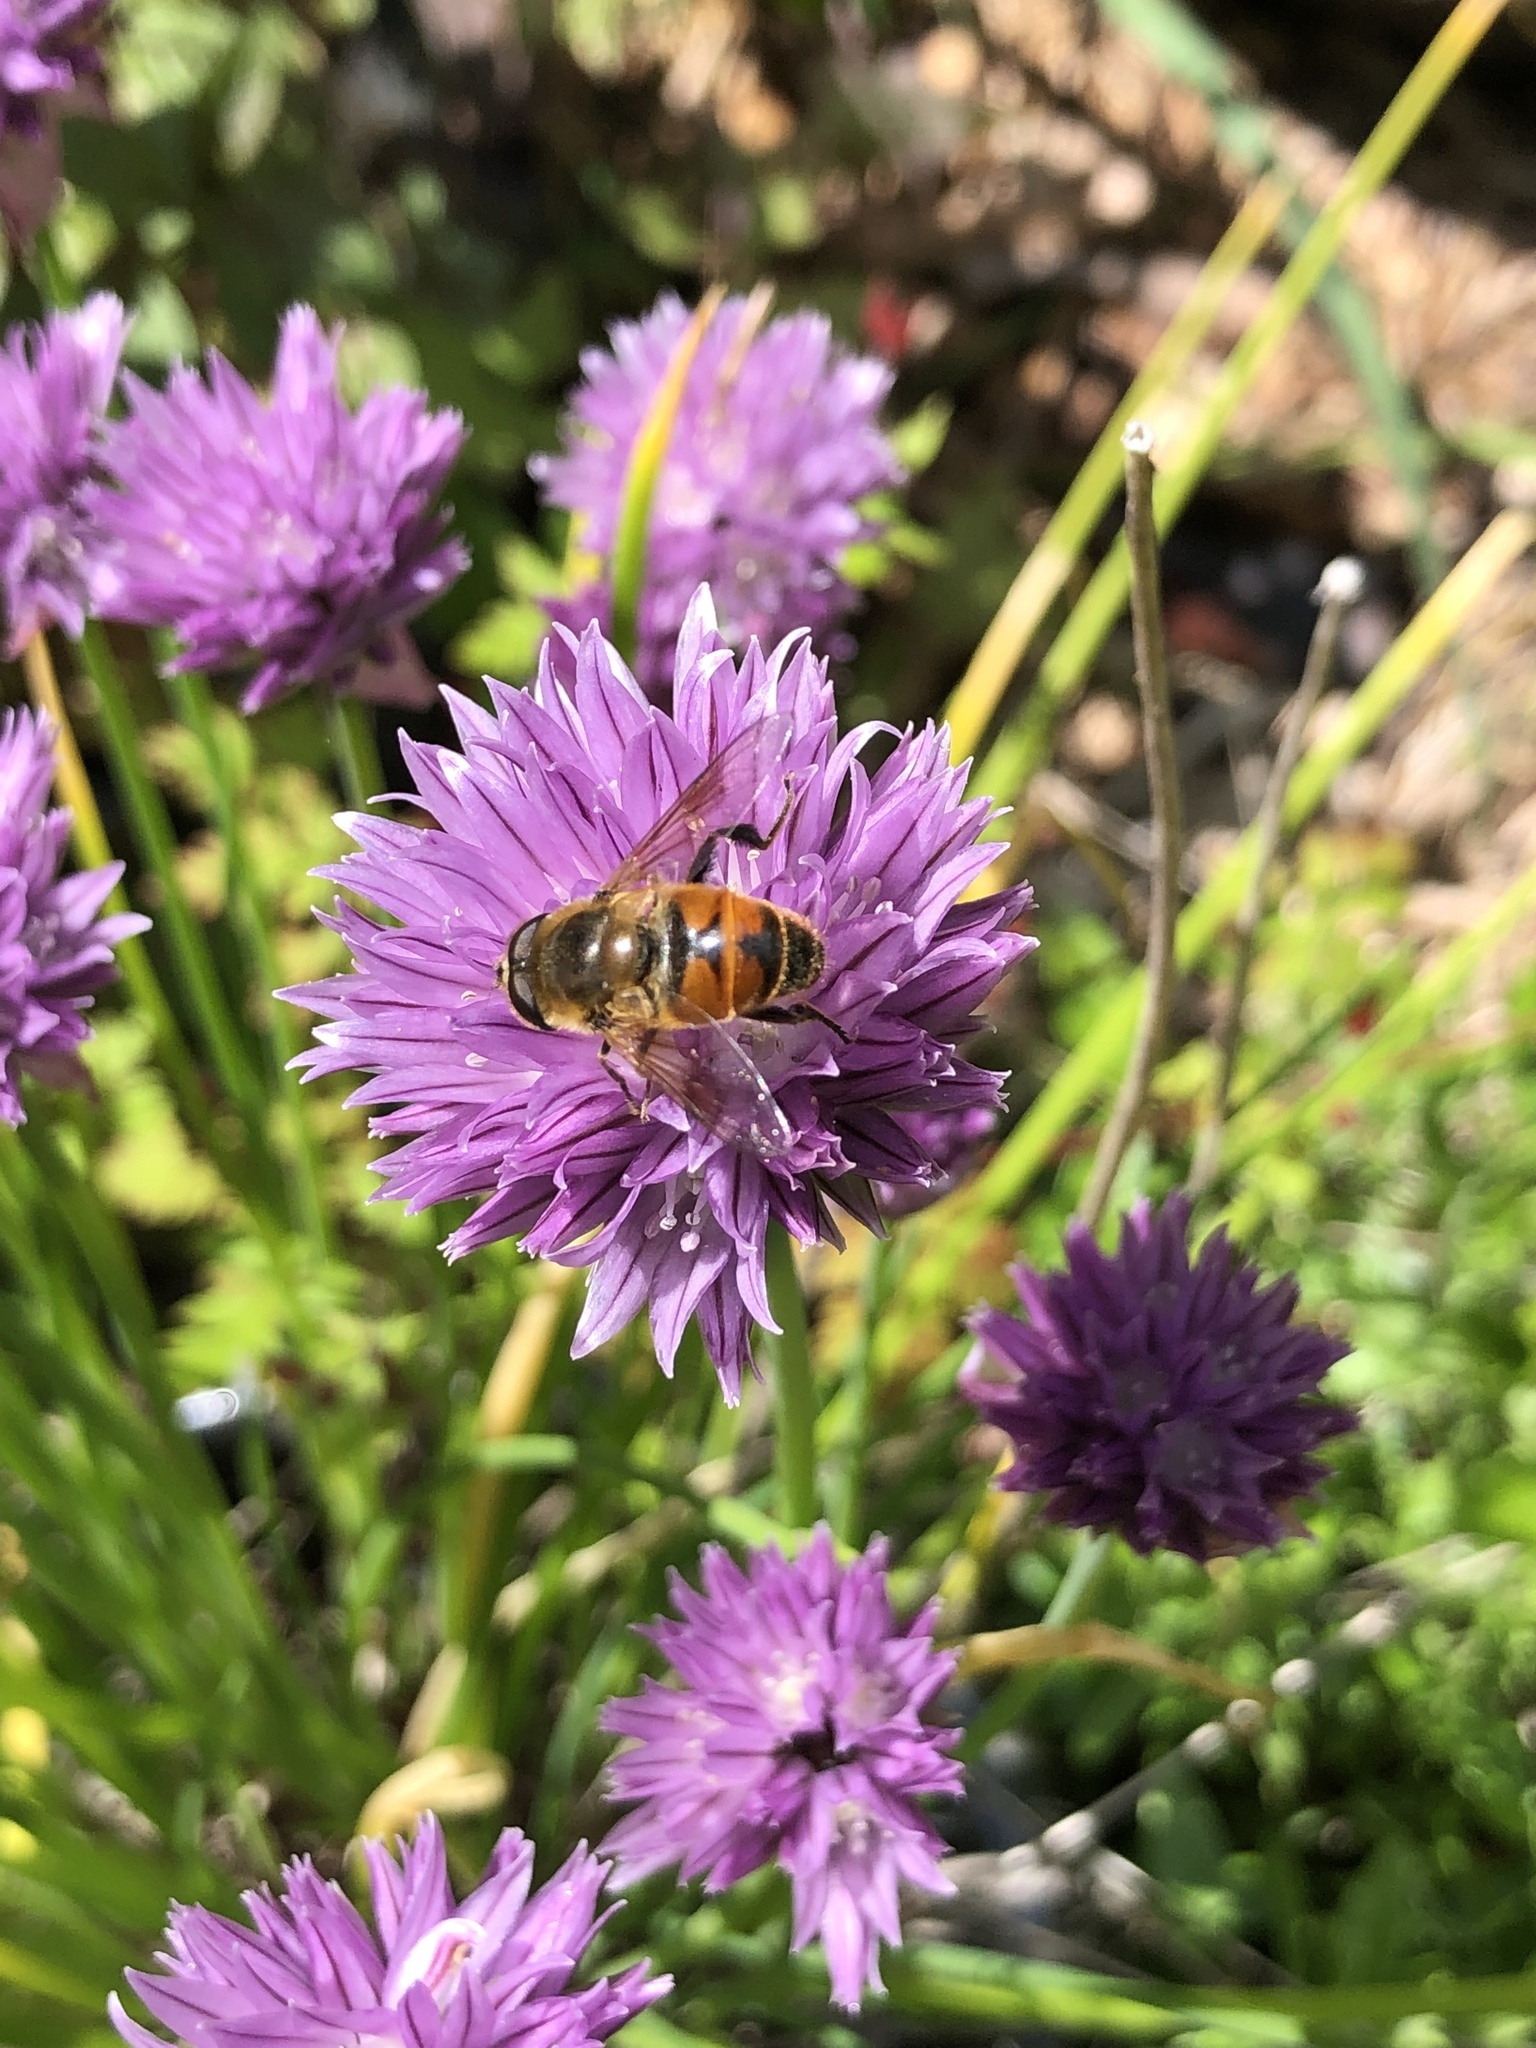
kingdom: Animalia
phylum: Arthropoda
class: Insecta
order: Diptera
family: Syrphidae
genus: Eristalis
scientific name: Eristalis tenax
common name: Drone fly
